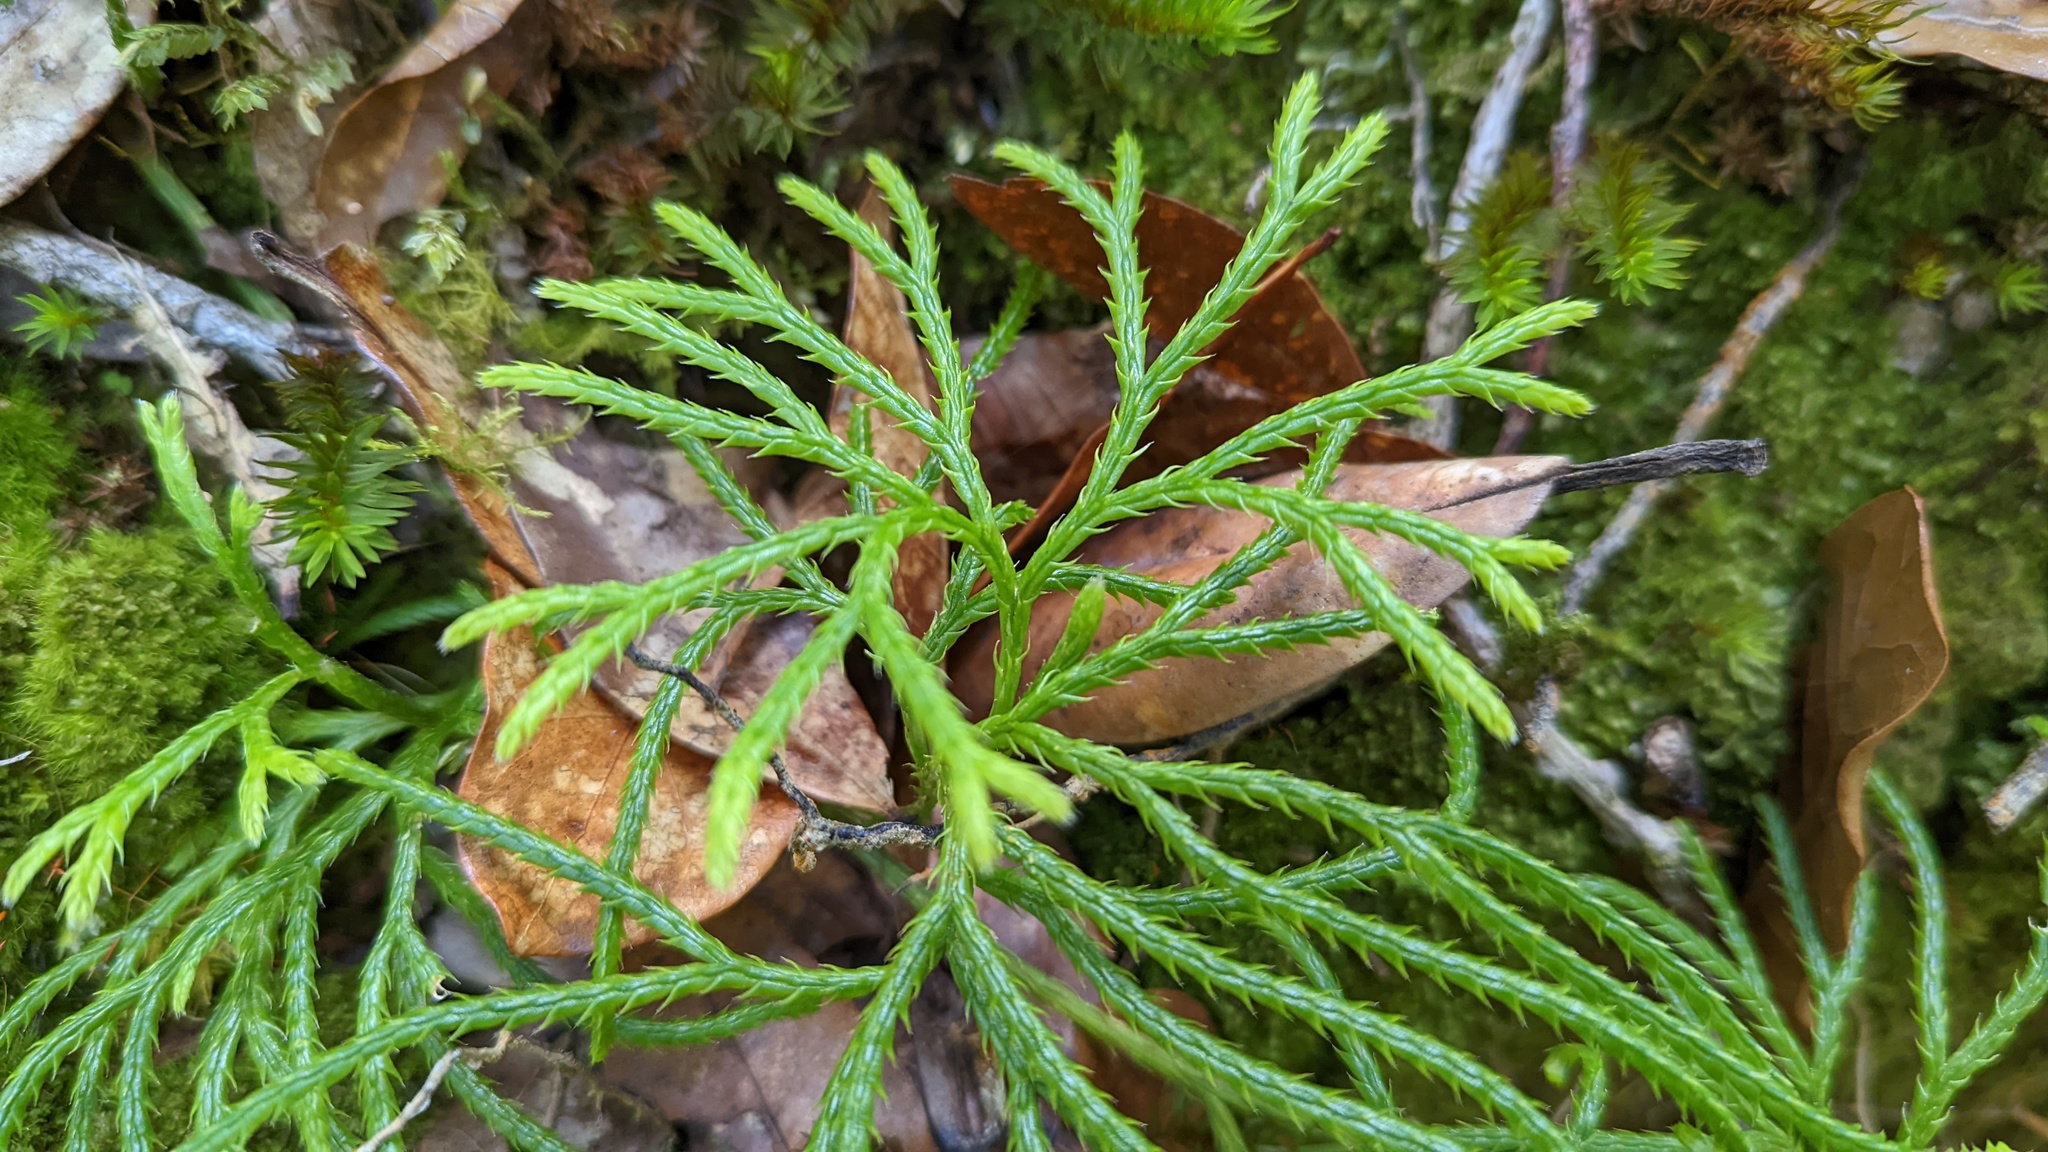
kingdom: Plantae
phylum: Tracheophyta
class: Lycopodiopsida
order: Lycopodiales
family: Lycopodiaceae
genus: Diphasiastrum
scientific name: Diphasiastrum thyoides
